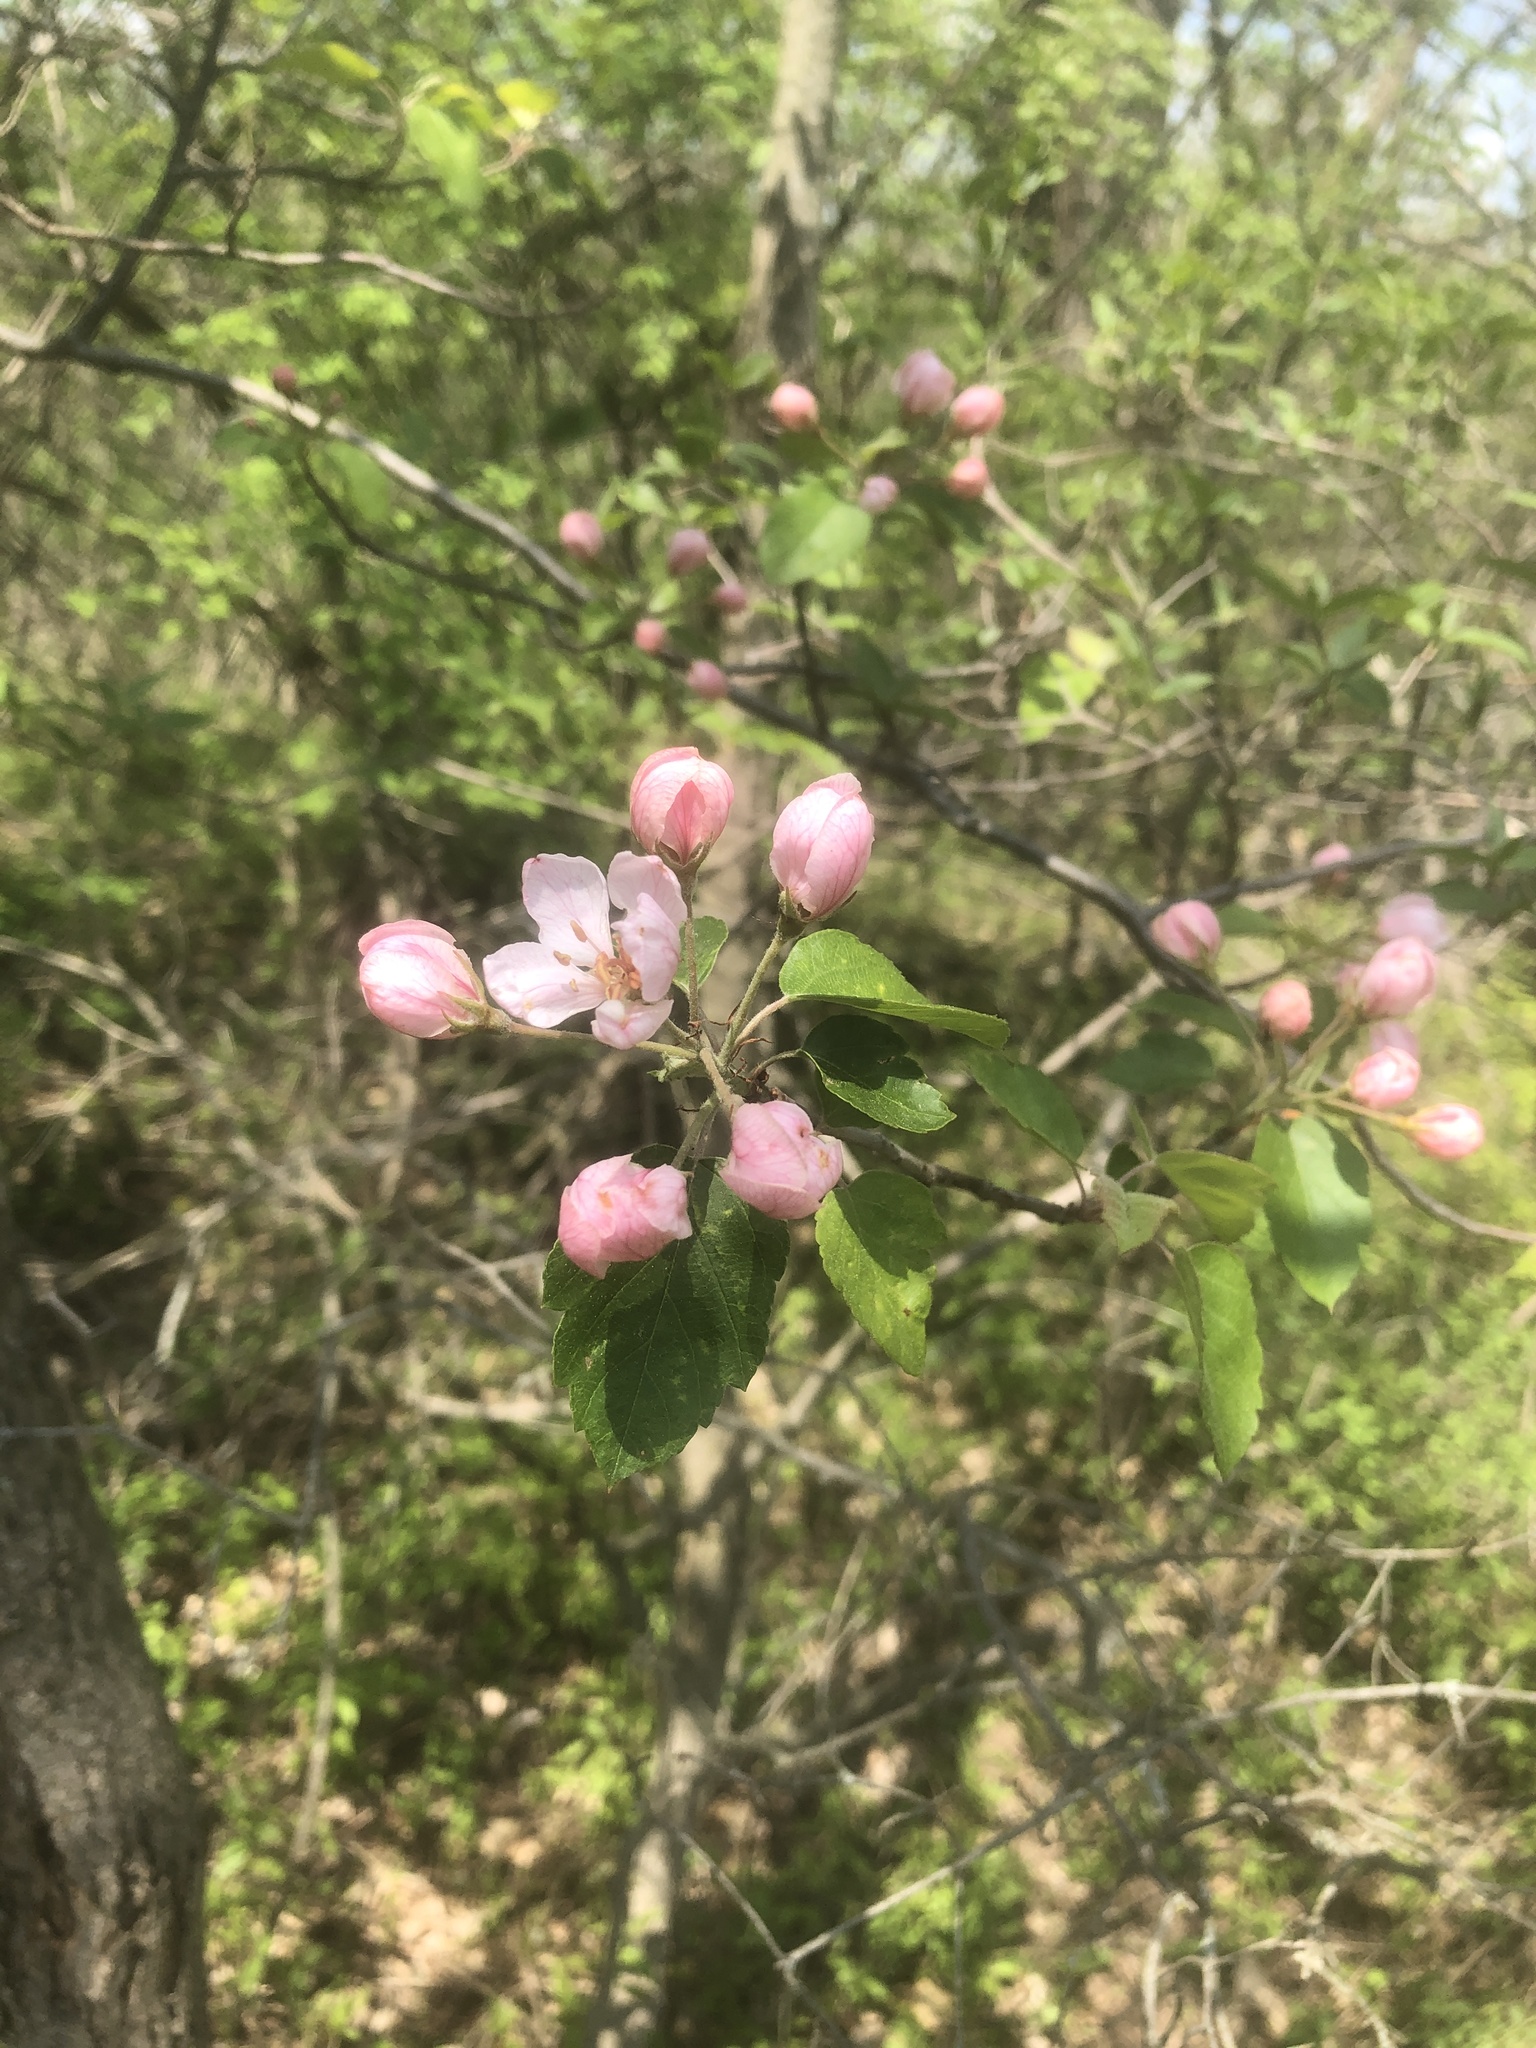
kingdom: Plantae
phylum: Tracheophyta
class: Magnoliopsida
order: Rosales
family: Rosaceae
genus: Malus
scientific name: Malus coronaria
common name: Sweet crab apple
